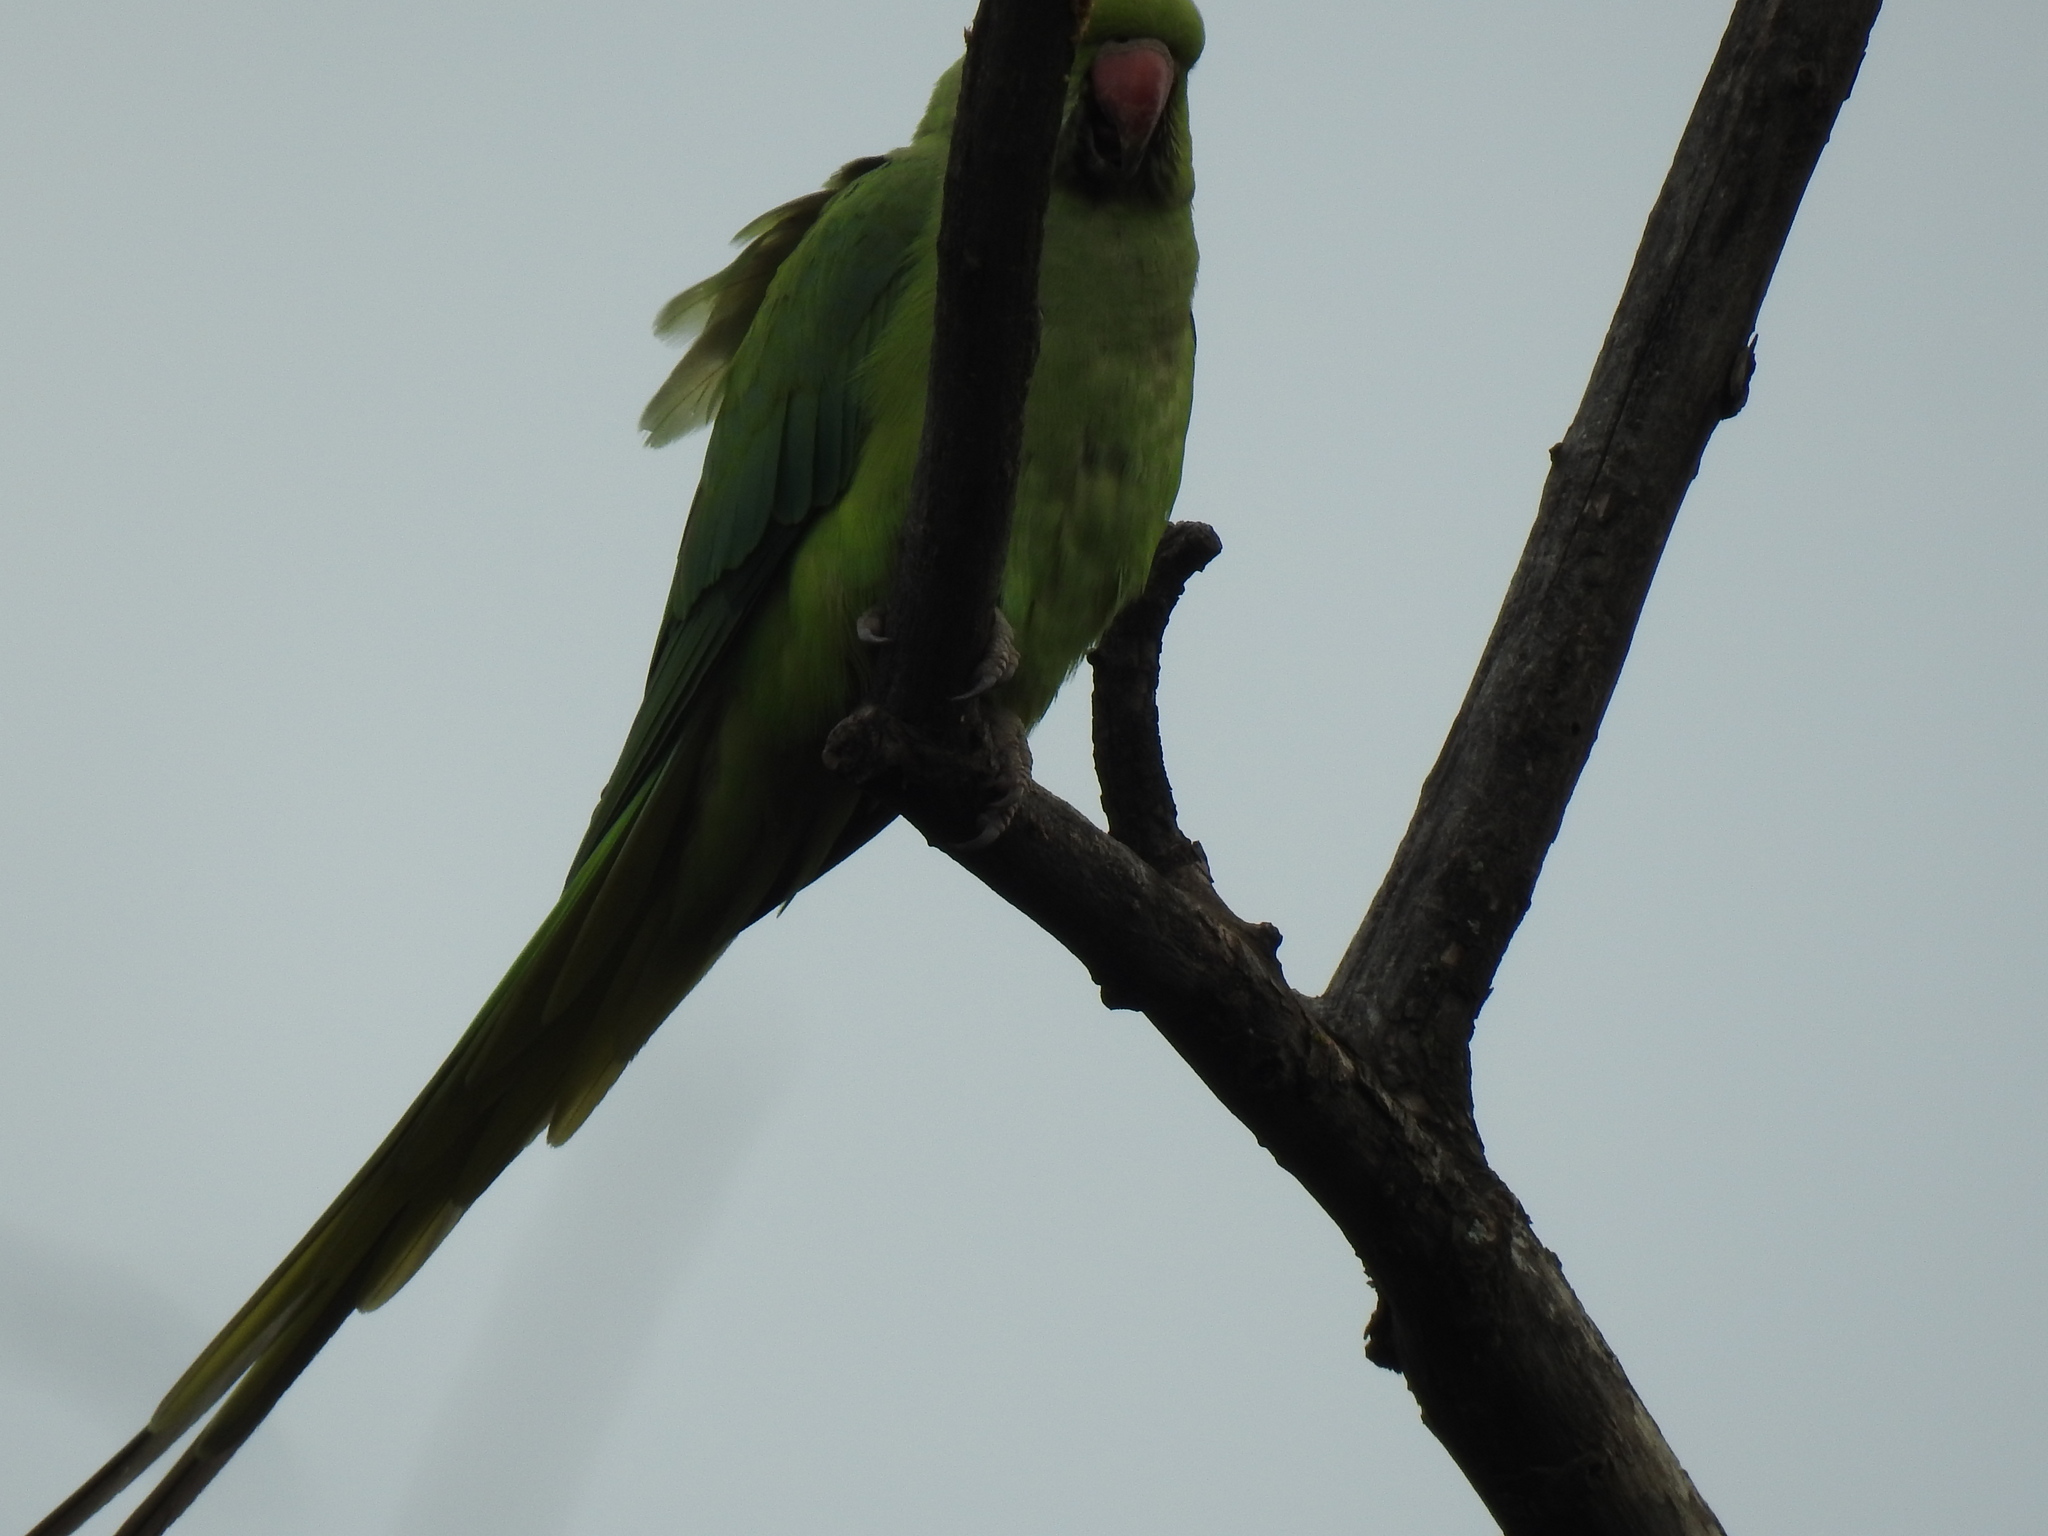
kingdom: Animalia
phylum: Chordata
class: Aves
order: Psittaciformes
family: Psittacidae
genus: Psittacula
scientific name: Psittacula krameri
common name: Rose-ringed parakeet
